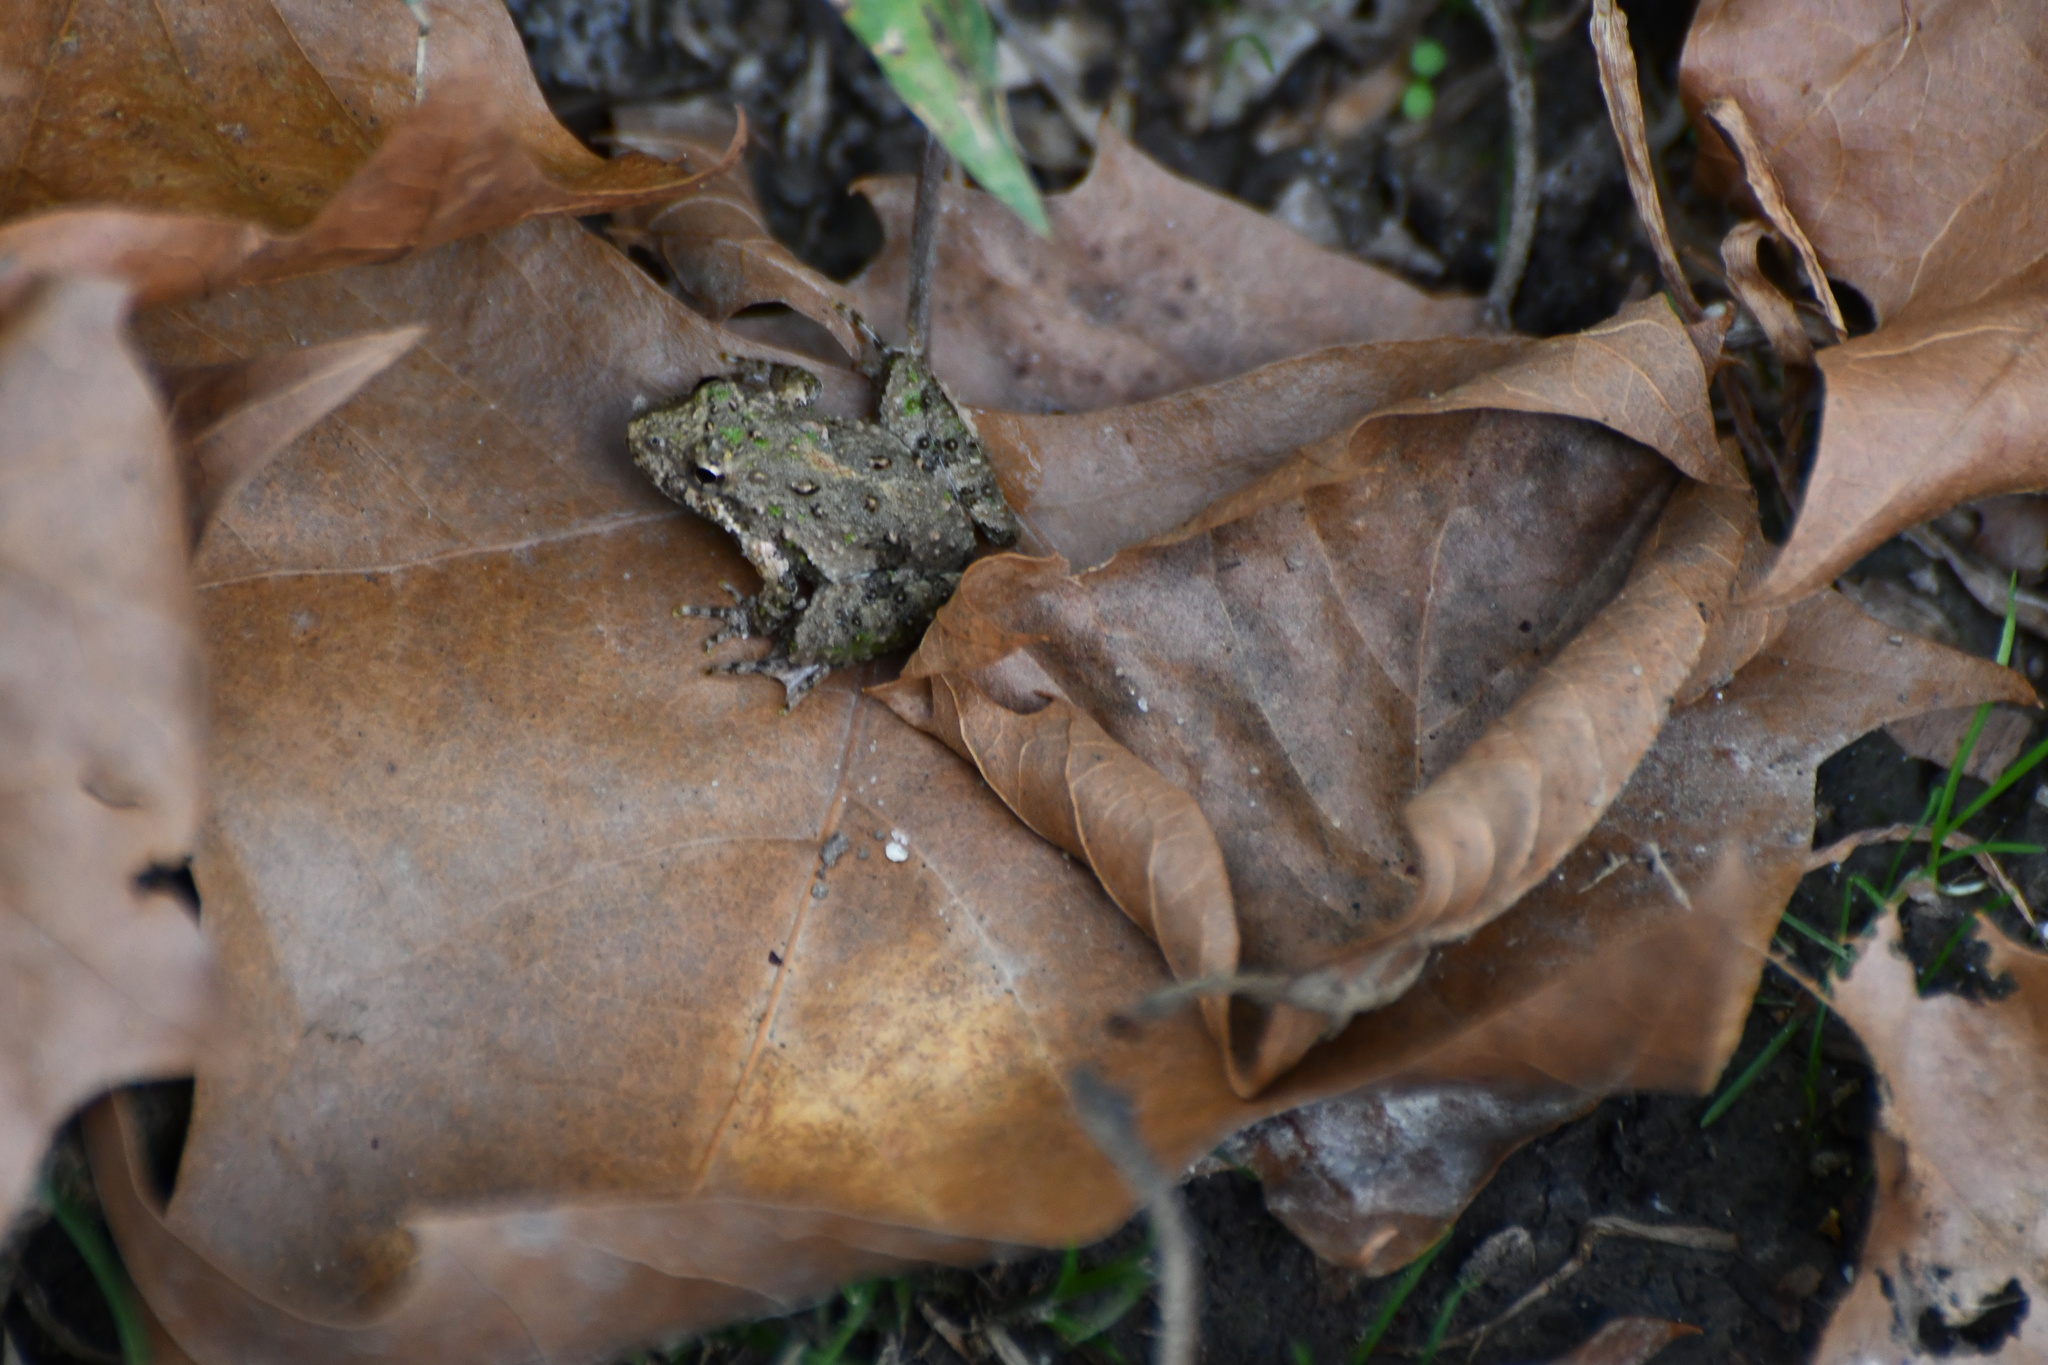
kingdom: Animalia
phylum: Chordata
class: Amphibia
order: Anura
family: Hylidae
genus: Acris
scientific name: Acris crepitans
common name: Northern cricket frog
